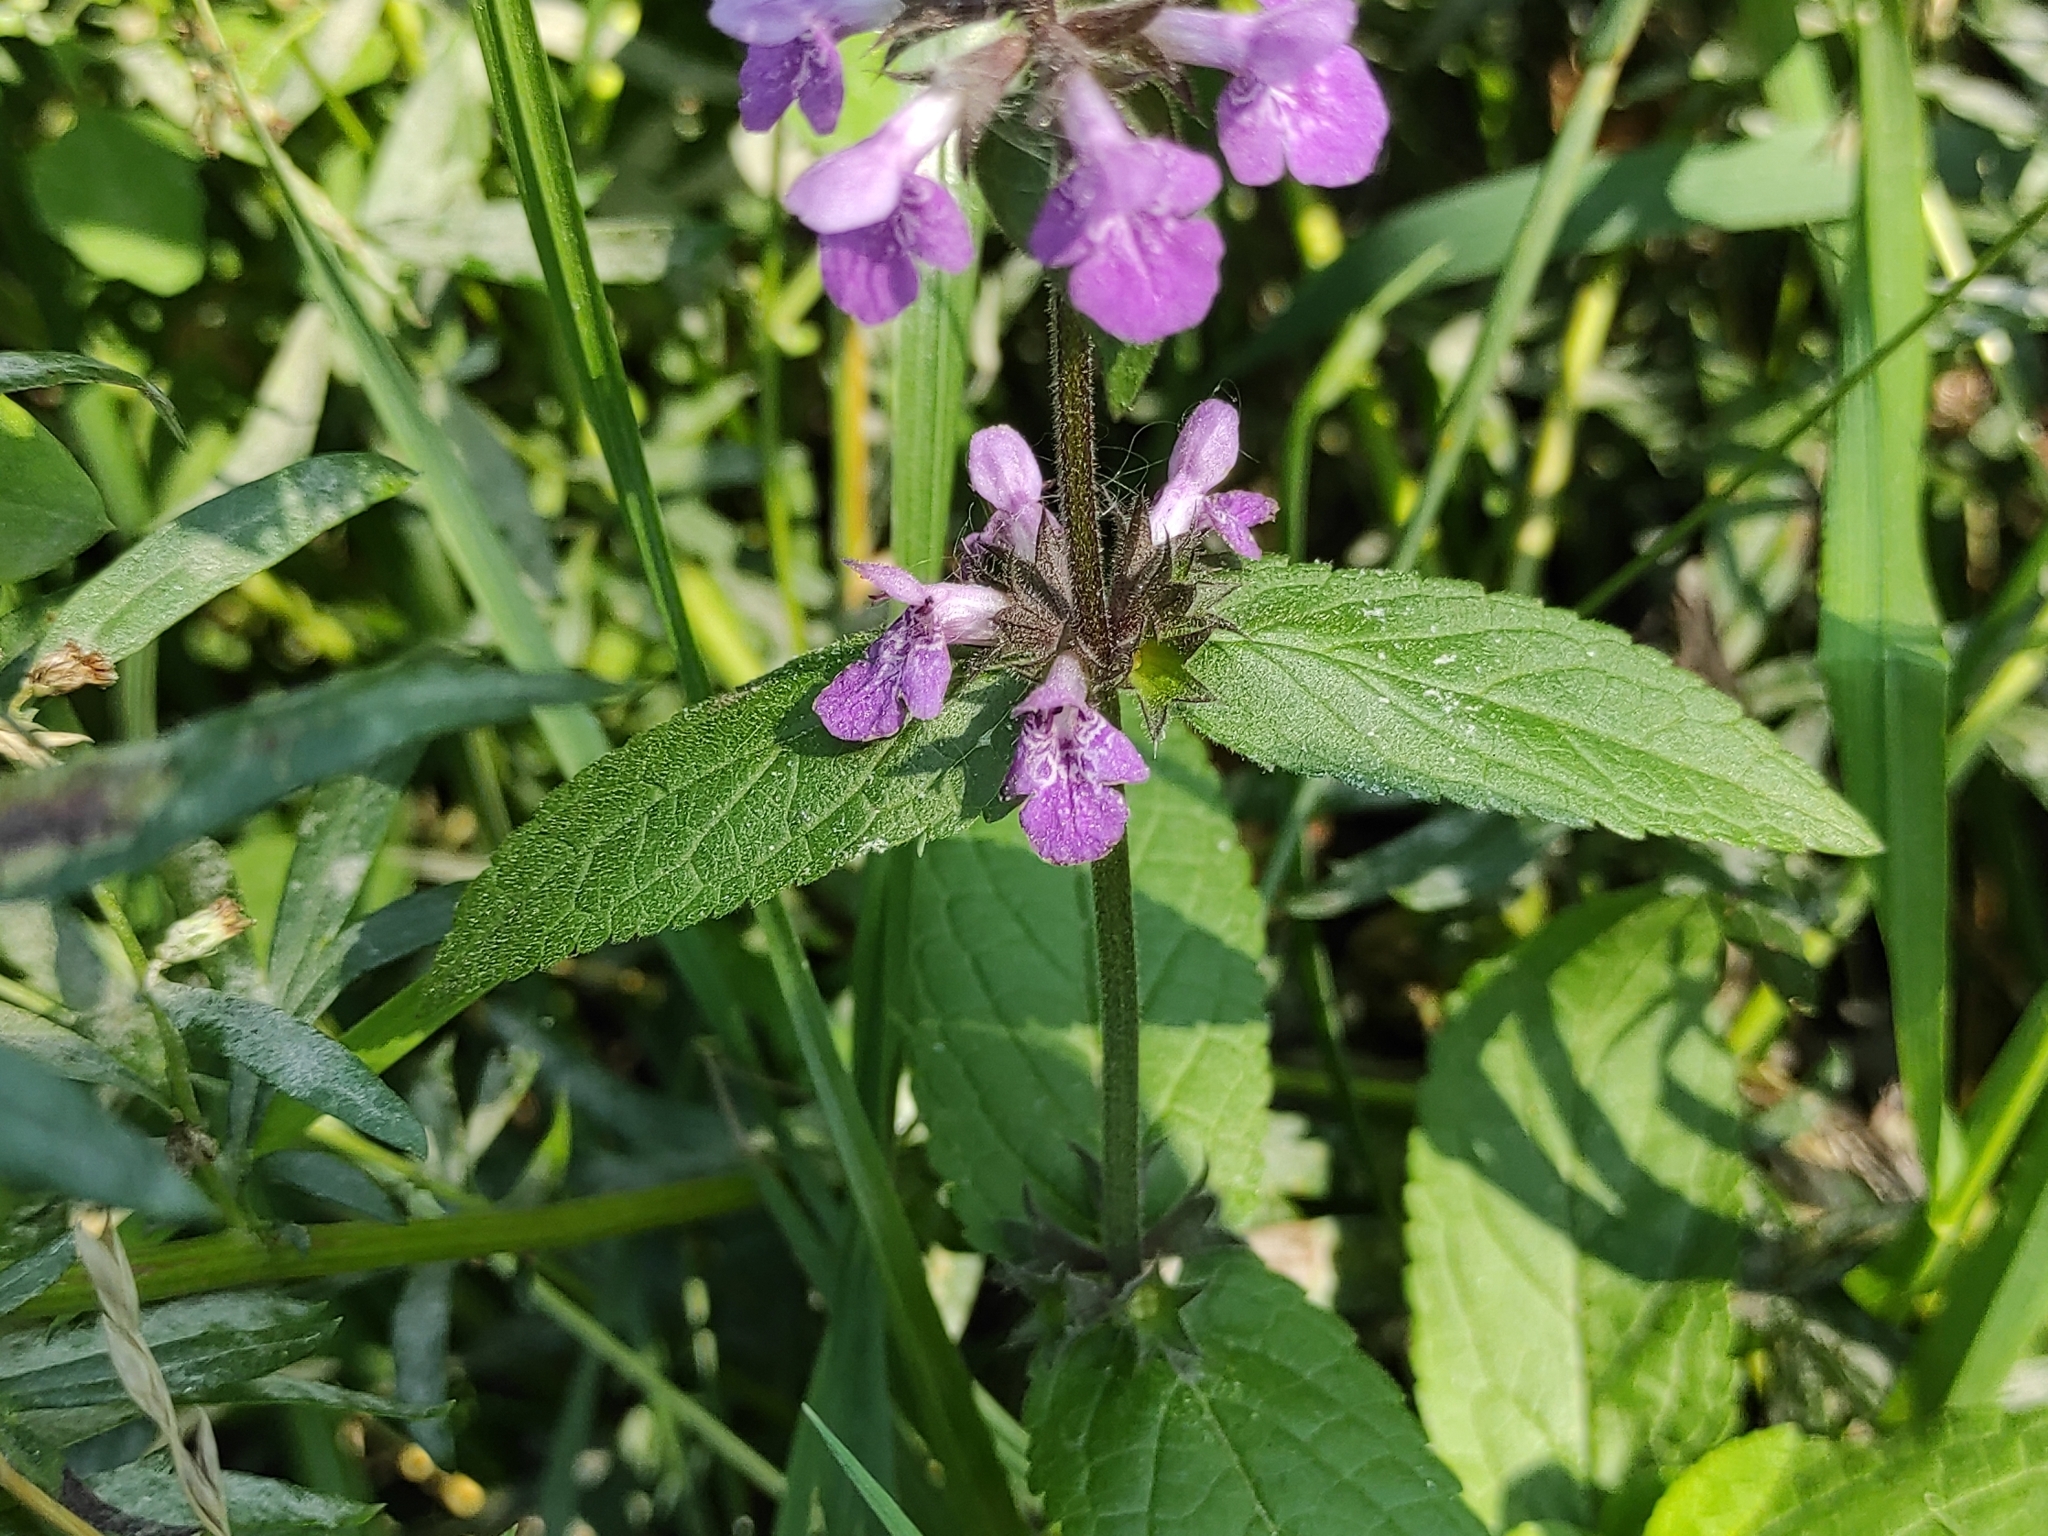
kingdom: Plantae
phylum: Tracheophyta
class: Magnoliopsida
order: Lamiales
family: Lamiaceae
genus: Stachys
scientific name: Stachys palustris
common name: Marsh woundwort
